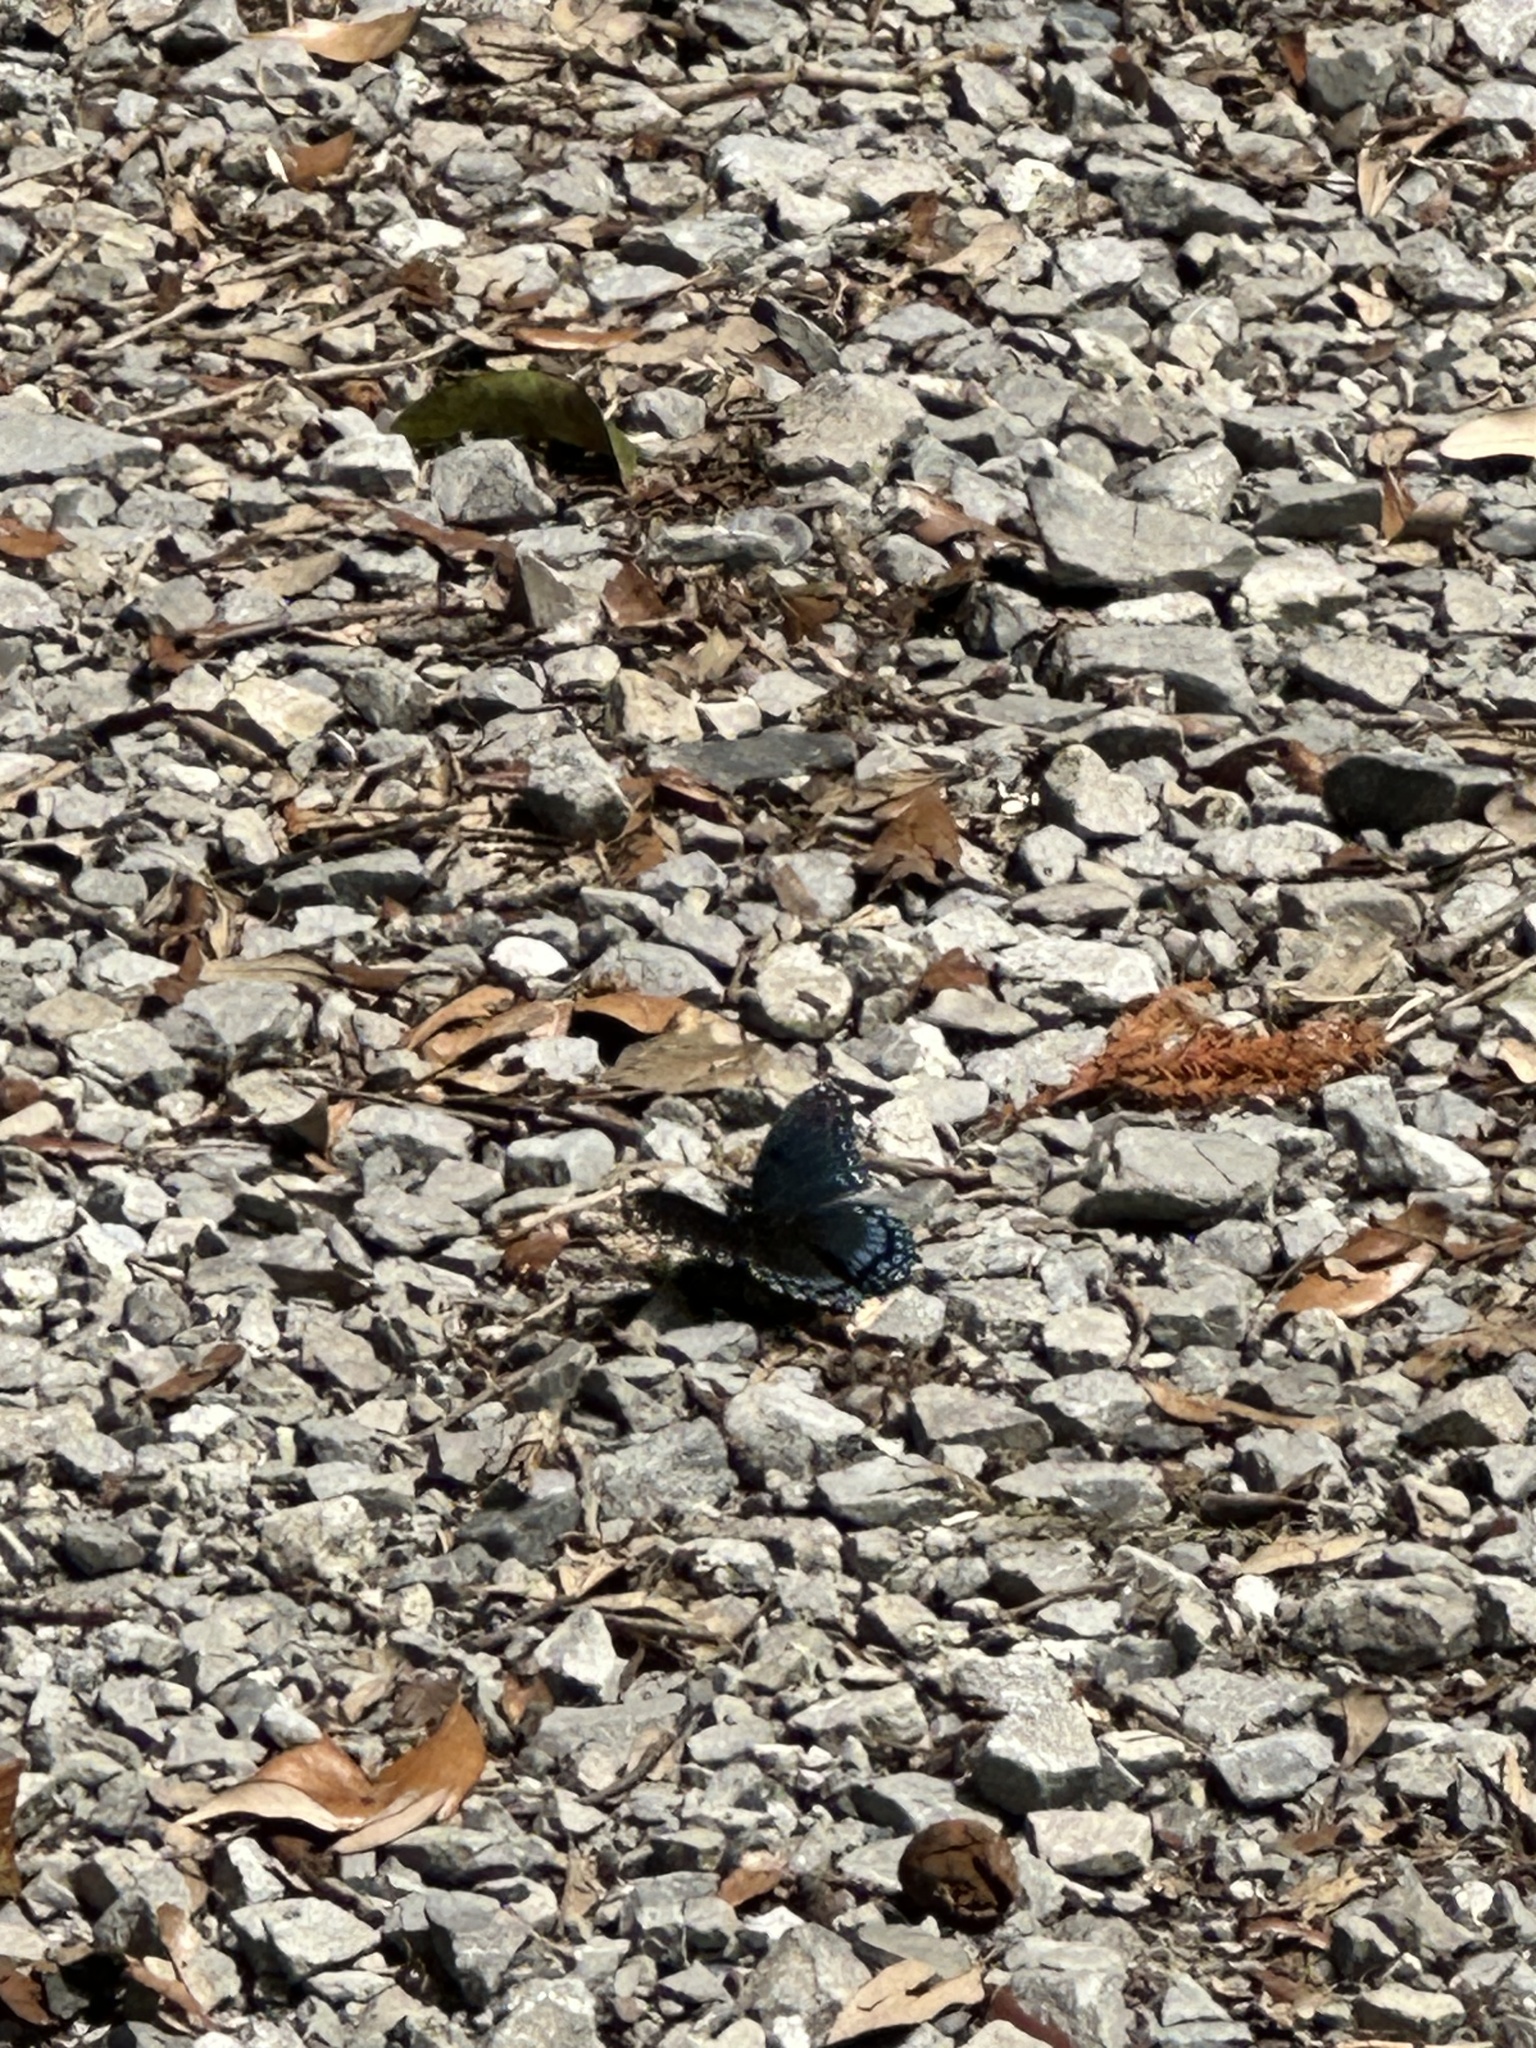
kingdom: Animalia
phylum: Arthropoda
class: Insecta
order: Lepidoptera
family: Nymphalidae
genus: Limenitis
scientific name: Limenitis arthemis
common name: Red-spotted admiral
